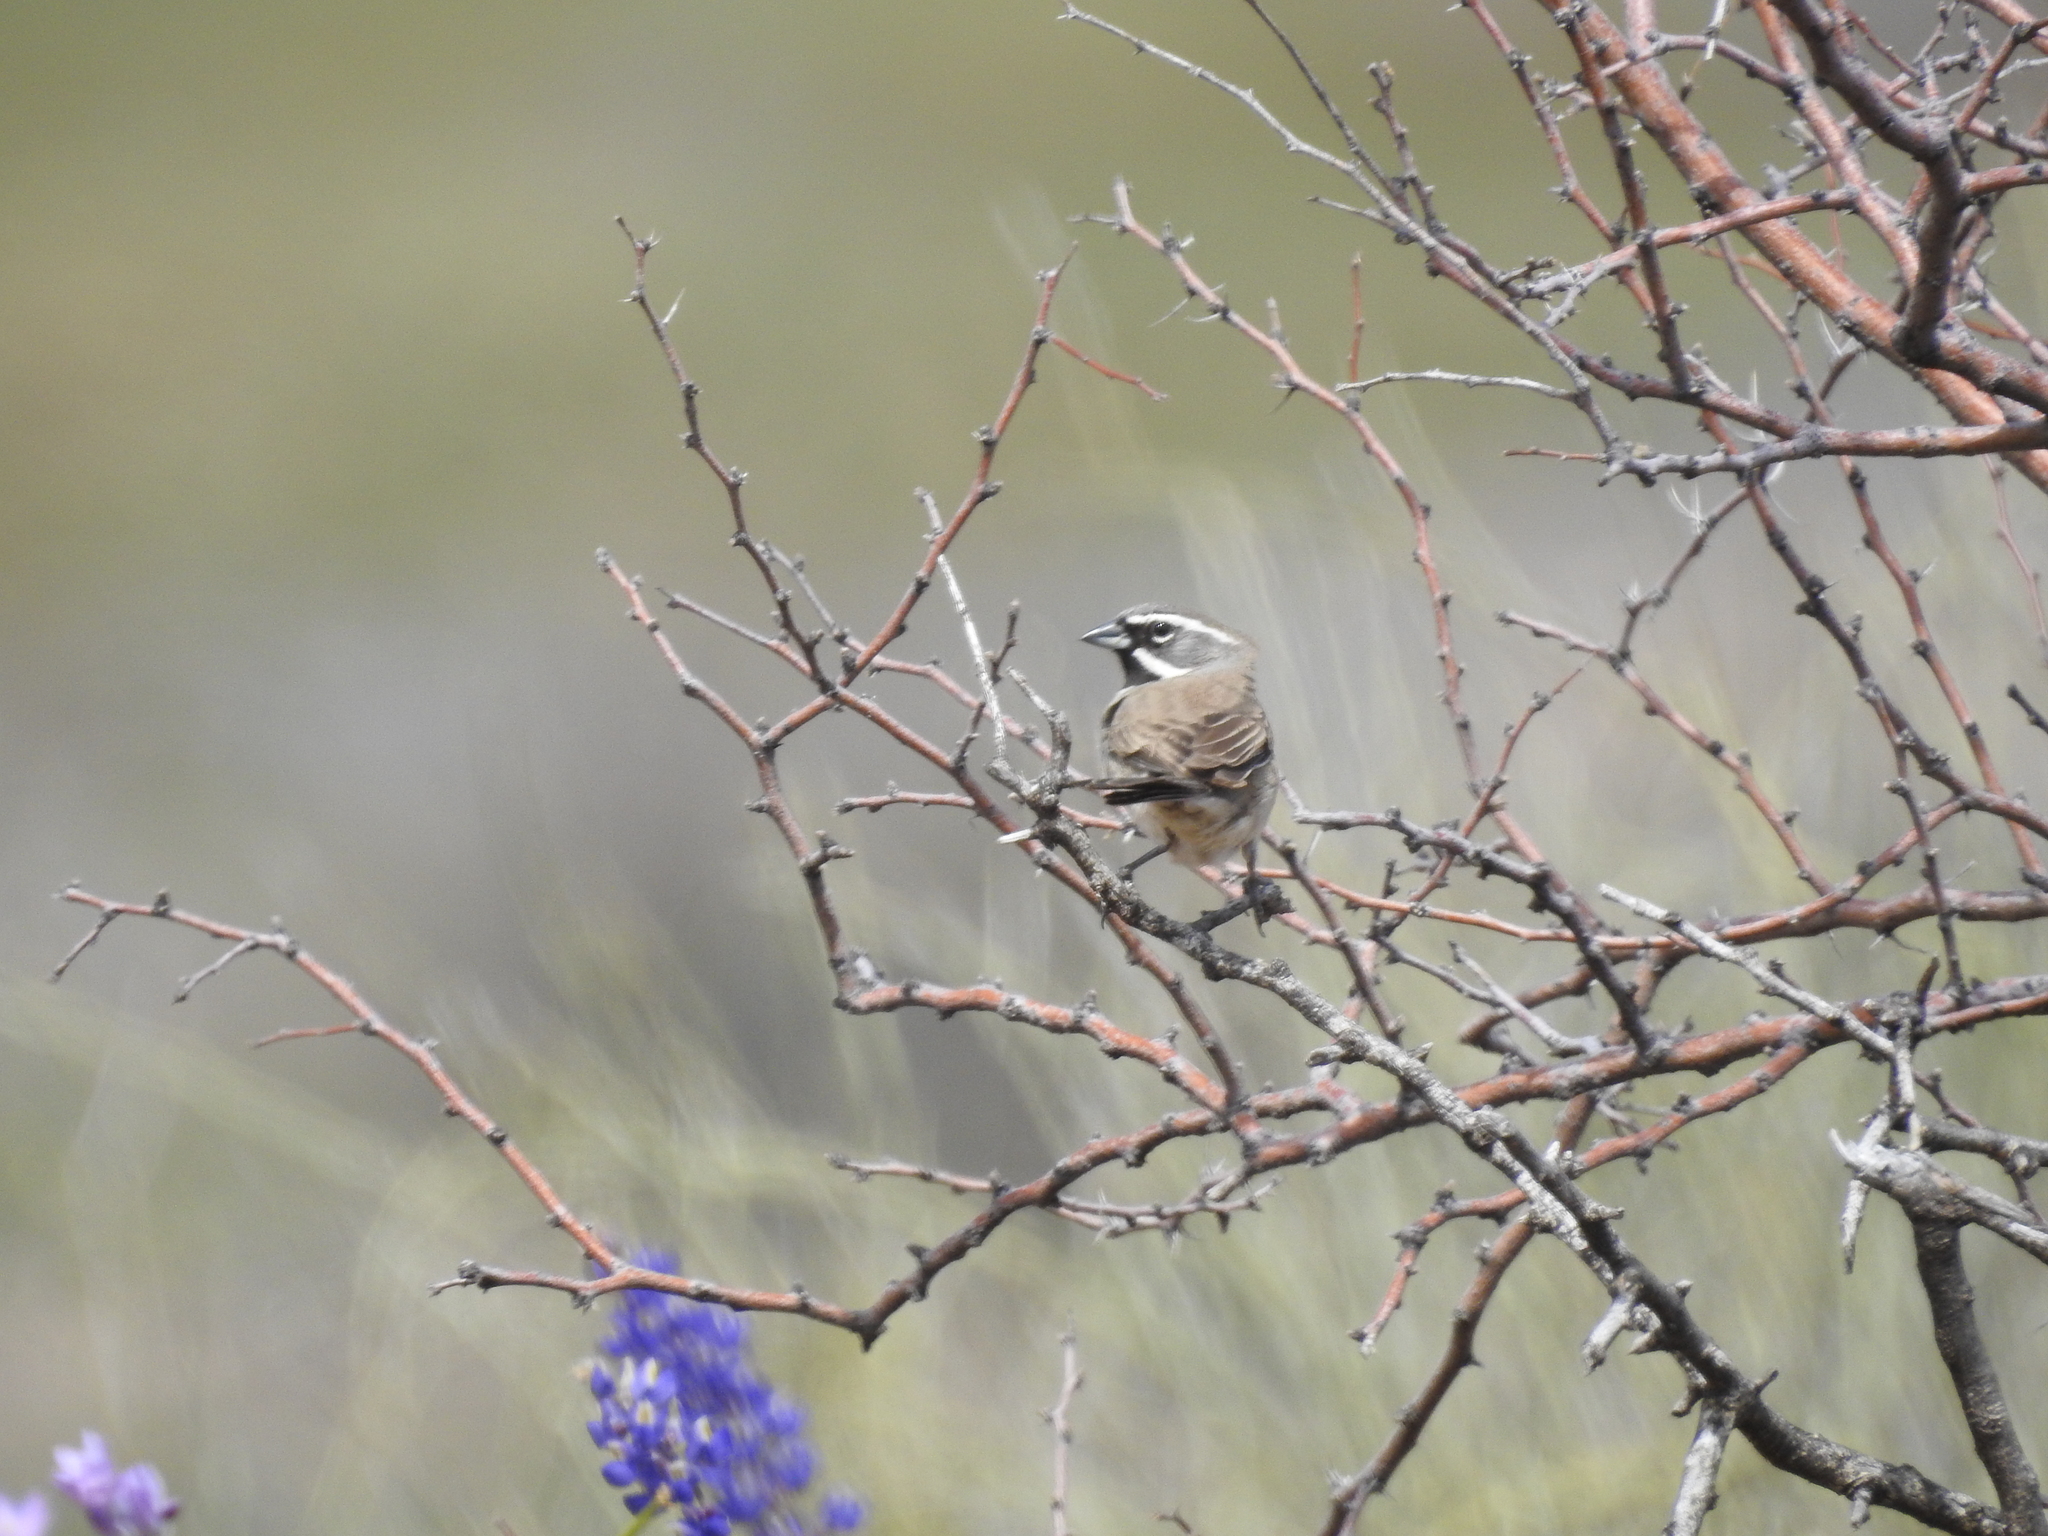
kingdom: Animalia
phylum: Chordata
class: Aves
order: Passeriformes
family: Passerellidae
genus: Amphispiza
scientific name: Amphispiza bilineata
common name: Black-throated sparrow
